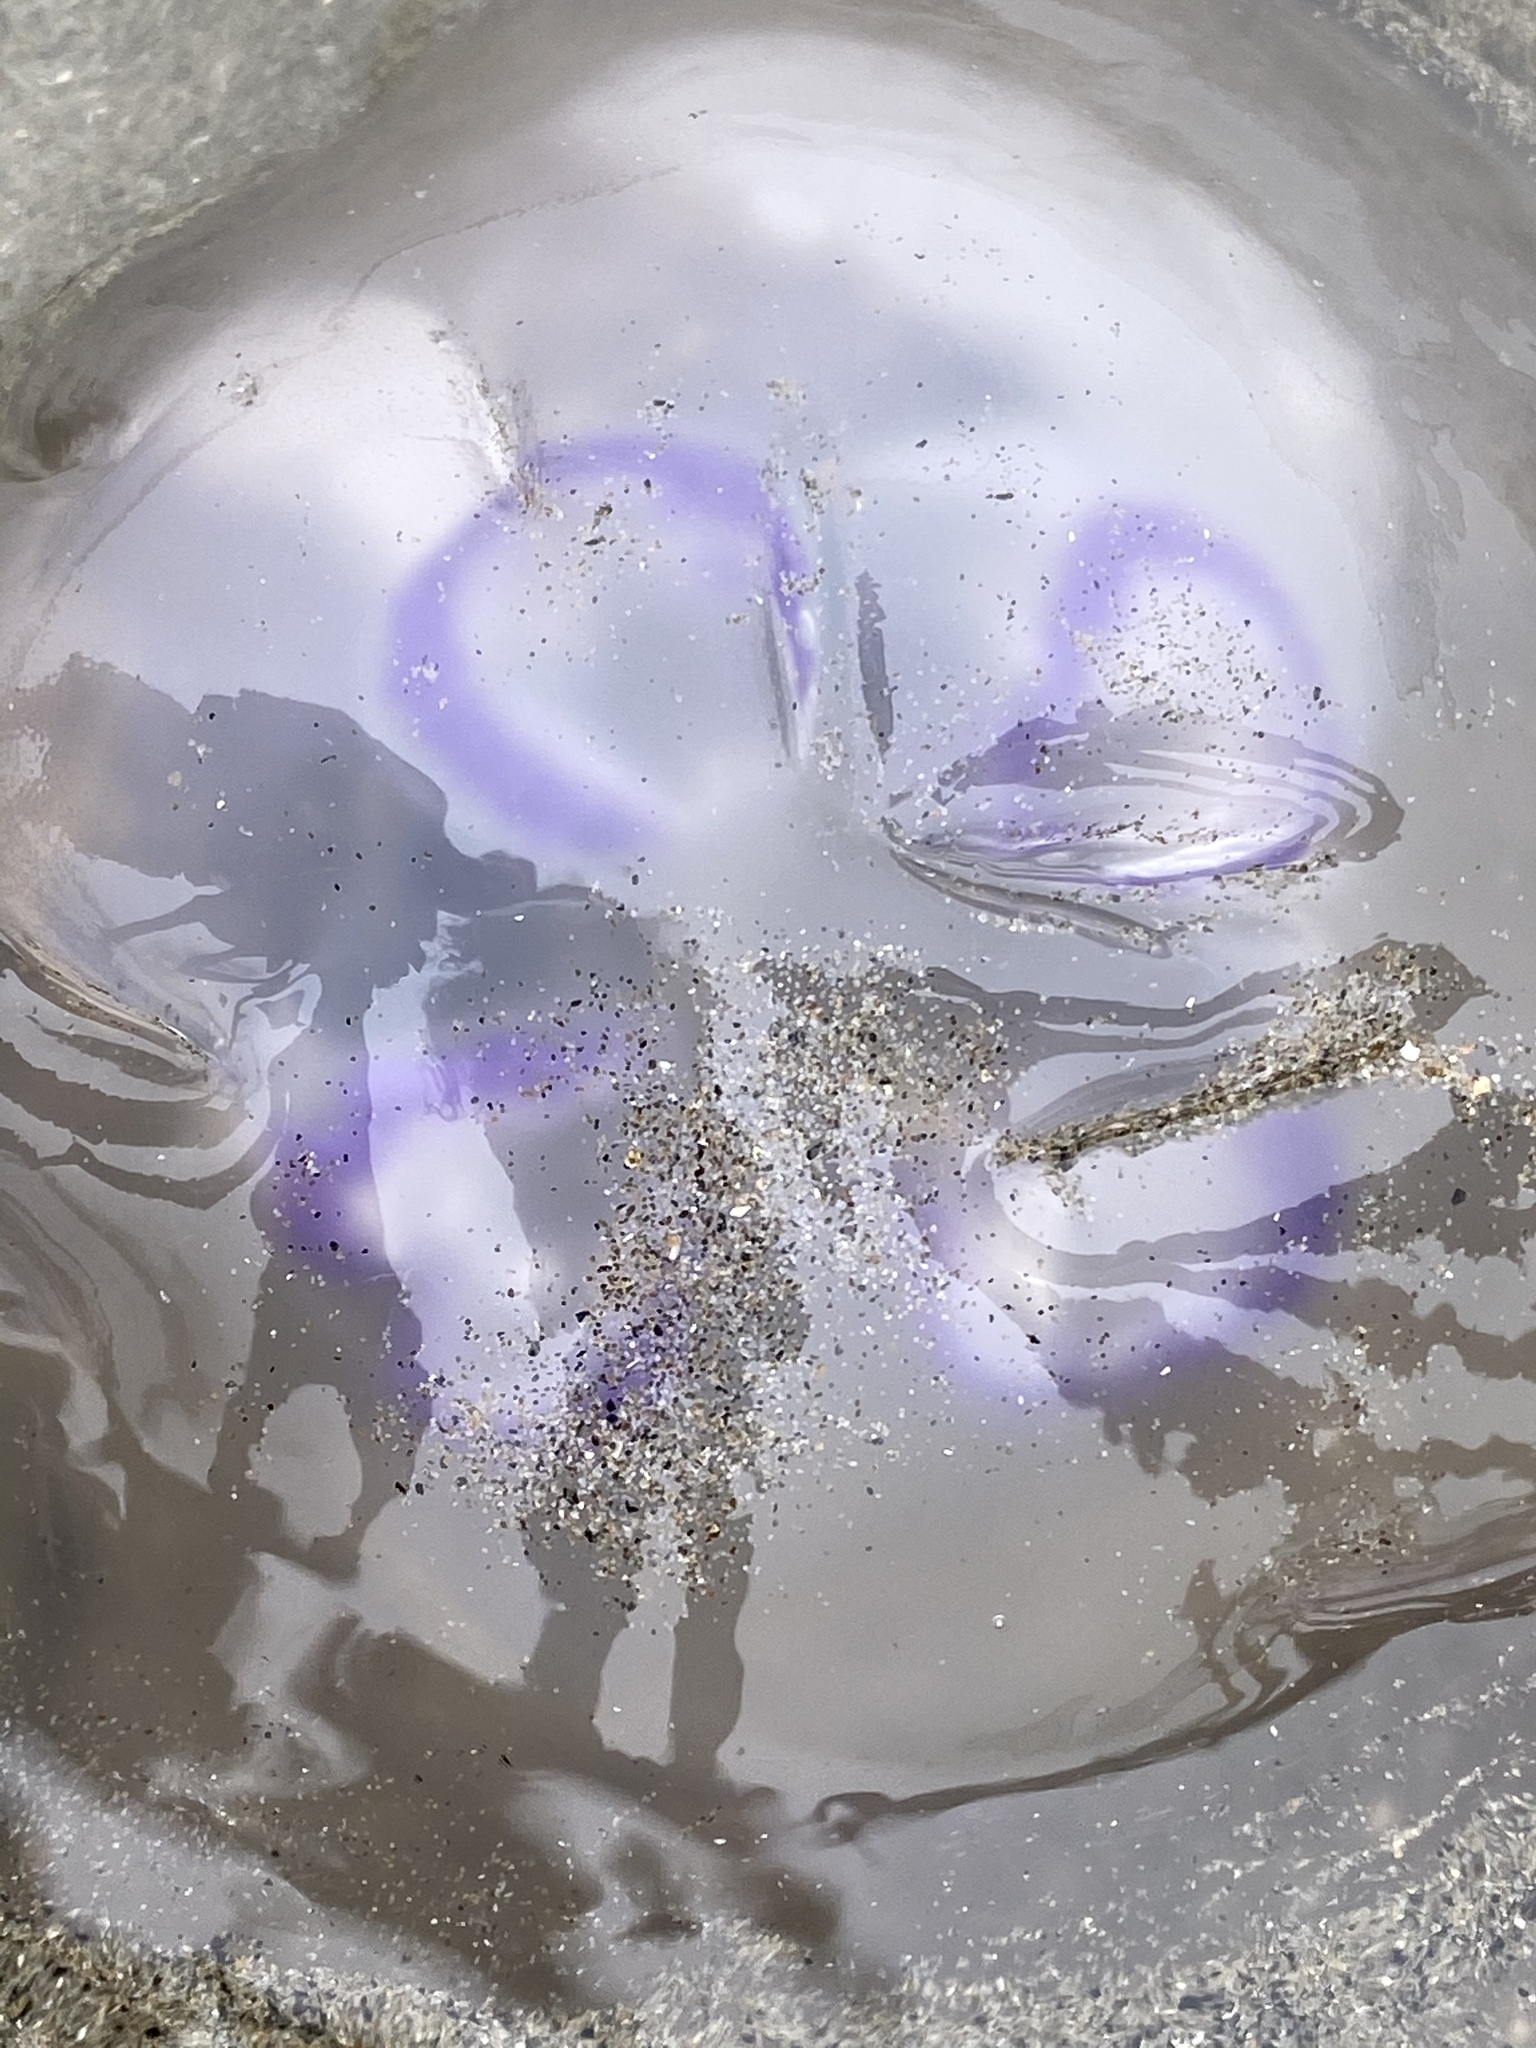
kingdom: Animalia
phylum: Cnidaria
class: Scyphozoa
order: Semaeostomeae
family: Ulmaridae
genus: Aurelia
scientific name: Aurelia labiata
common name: Pacific moon jelly
